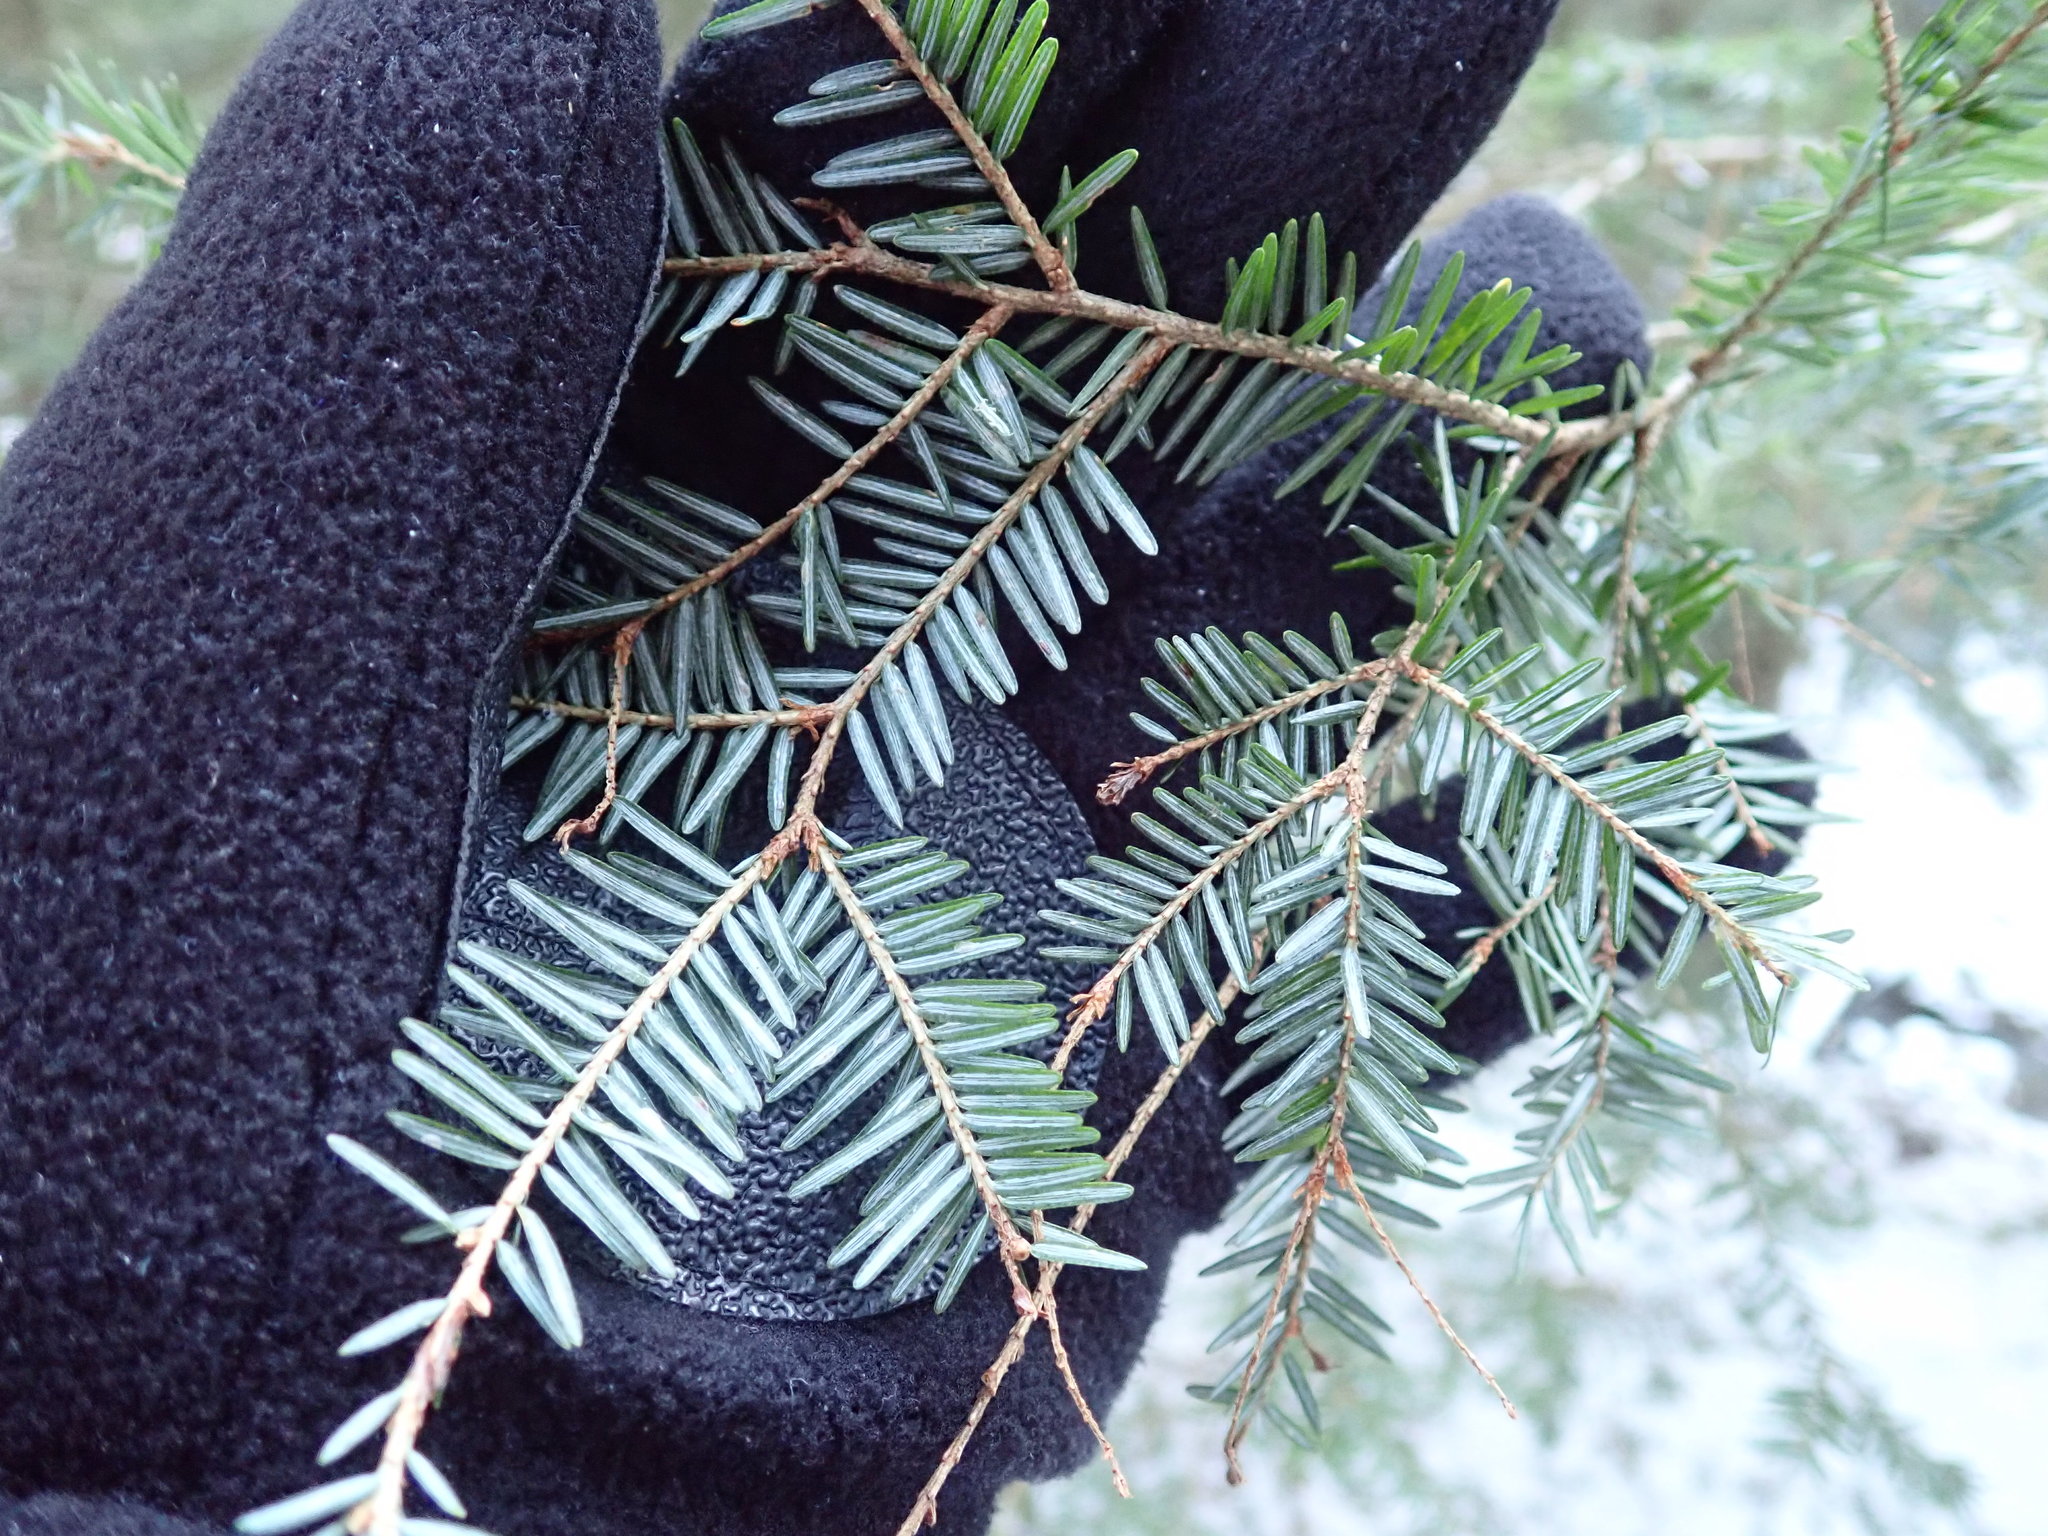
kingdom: Plantae
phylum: Tracheophyta
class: Pinopsida
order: Pinales
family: Pinaceae
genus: Tsuga
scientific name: Tsuga canadensis
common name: Eastern hemlock
